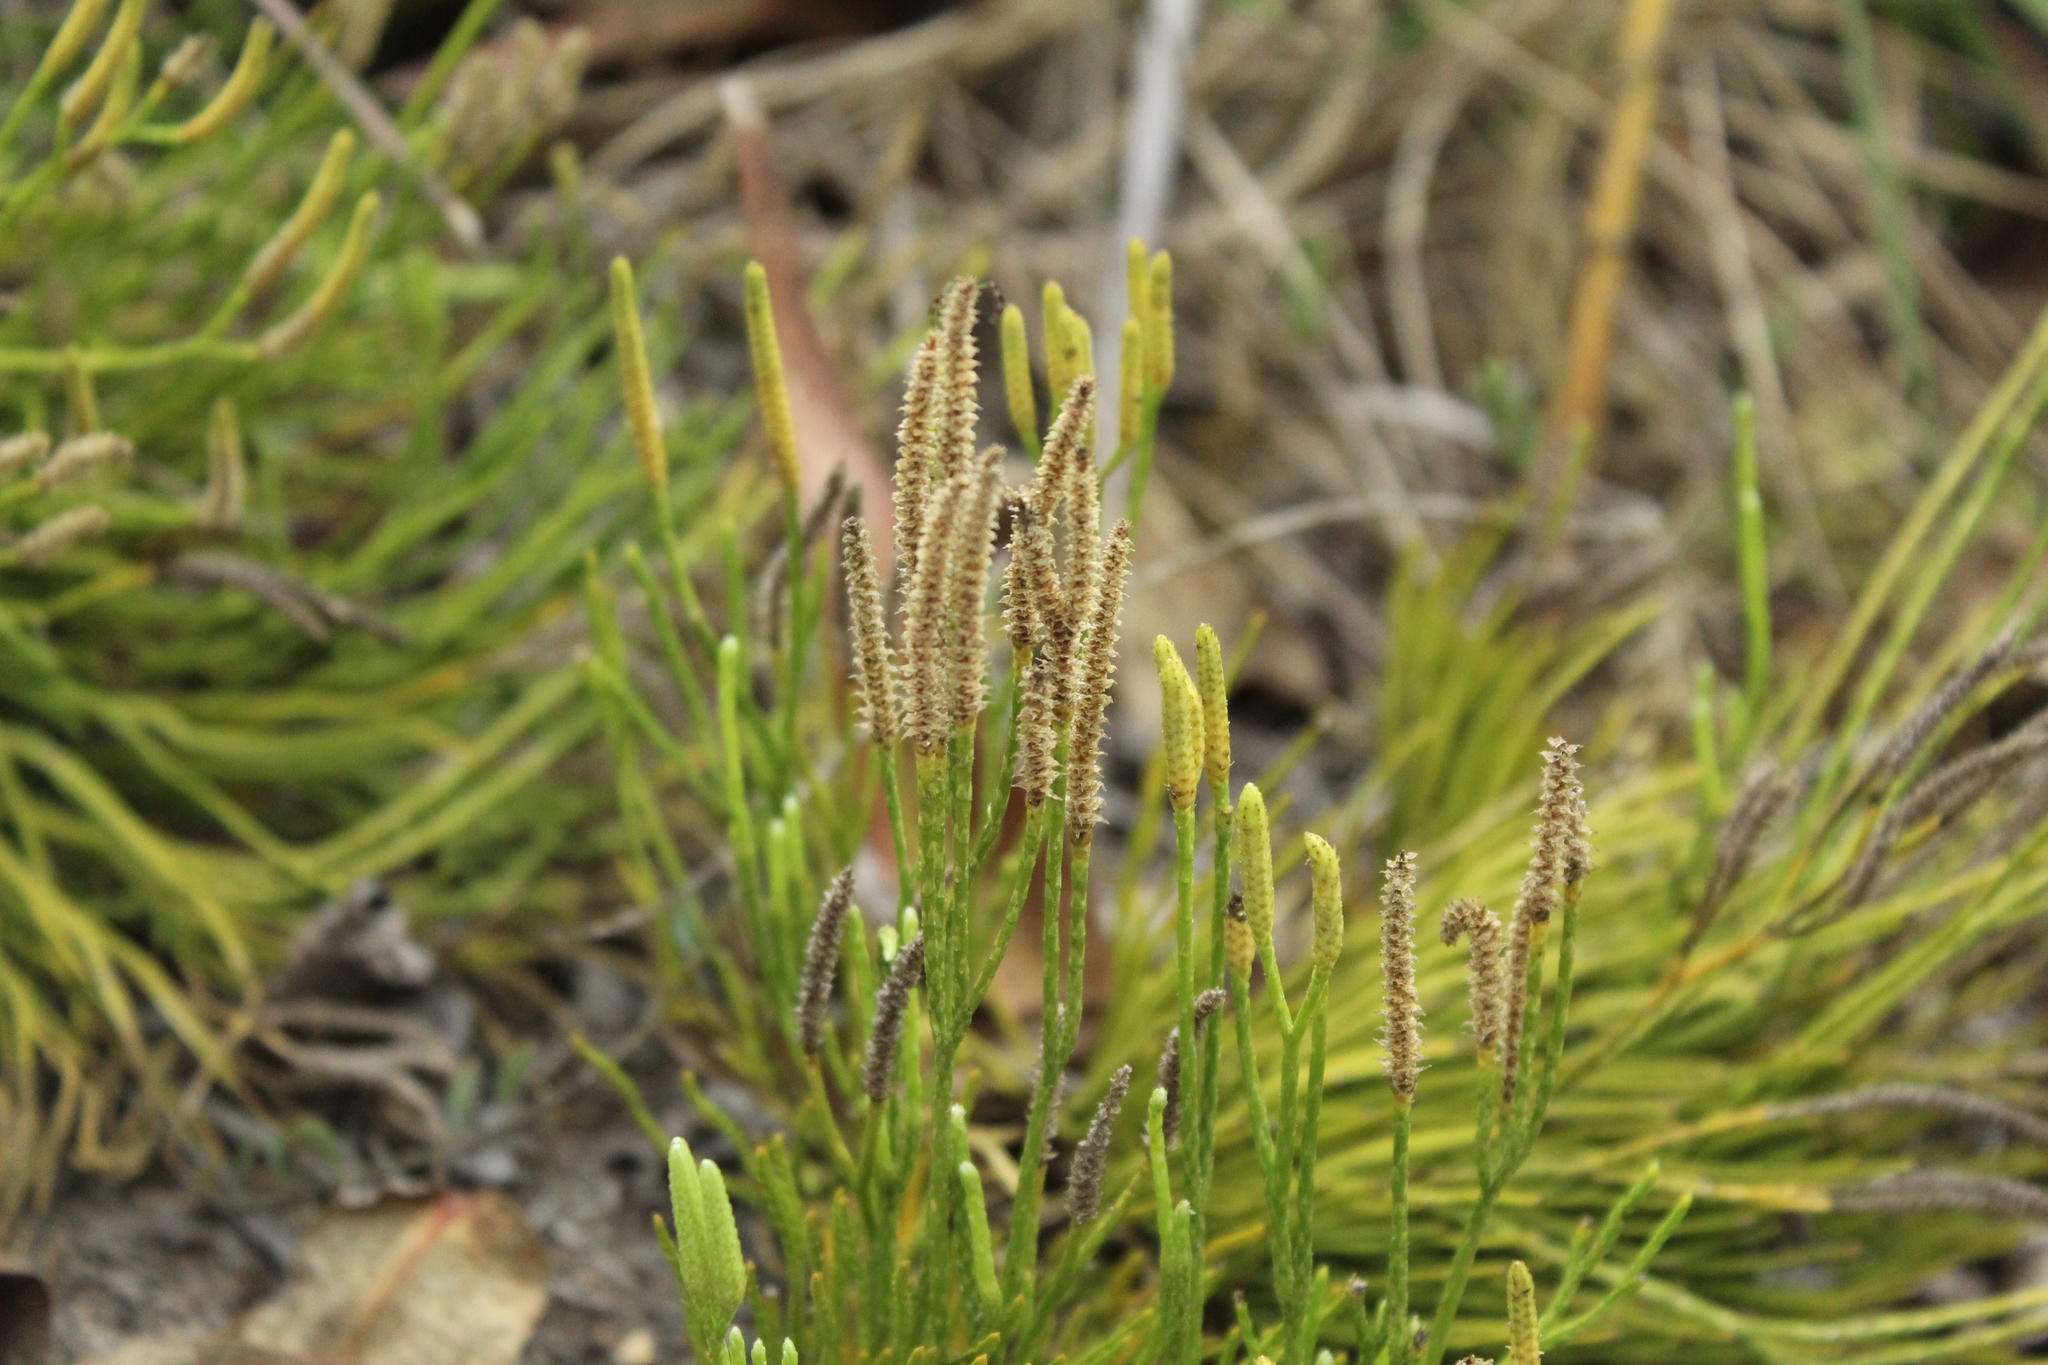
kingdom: Plantae
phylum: Tracheophyta
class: Lycopodiopsida
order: Lycopodiales
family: Lycopodiaceae
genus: Diphasiastrum
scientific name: Diphasiastrum thyoides
